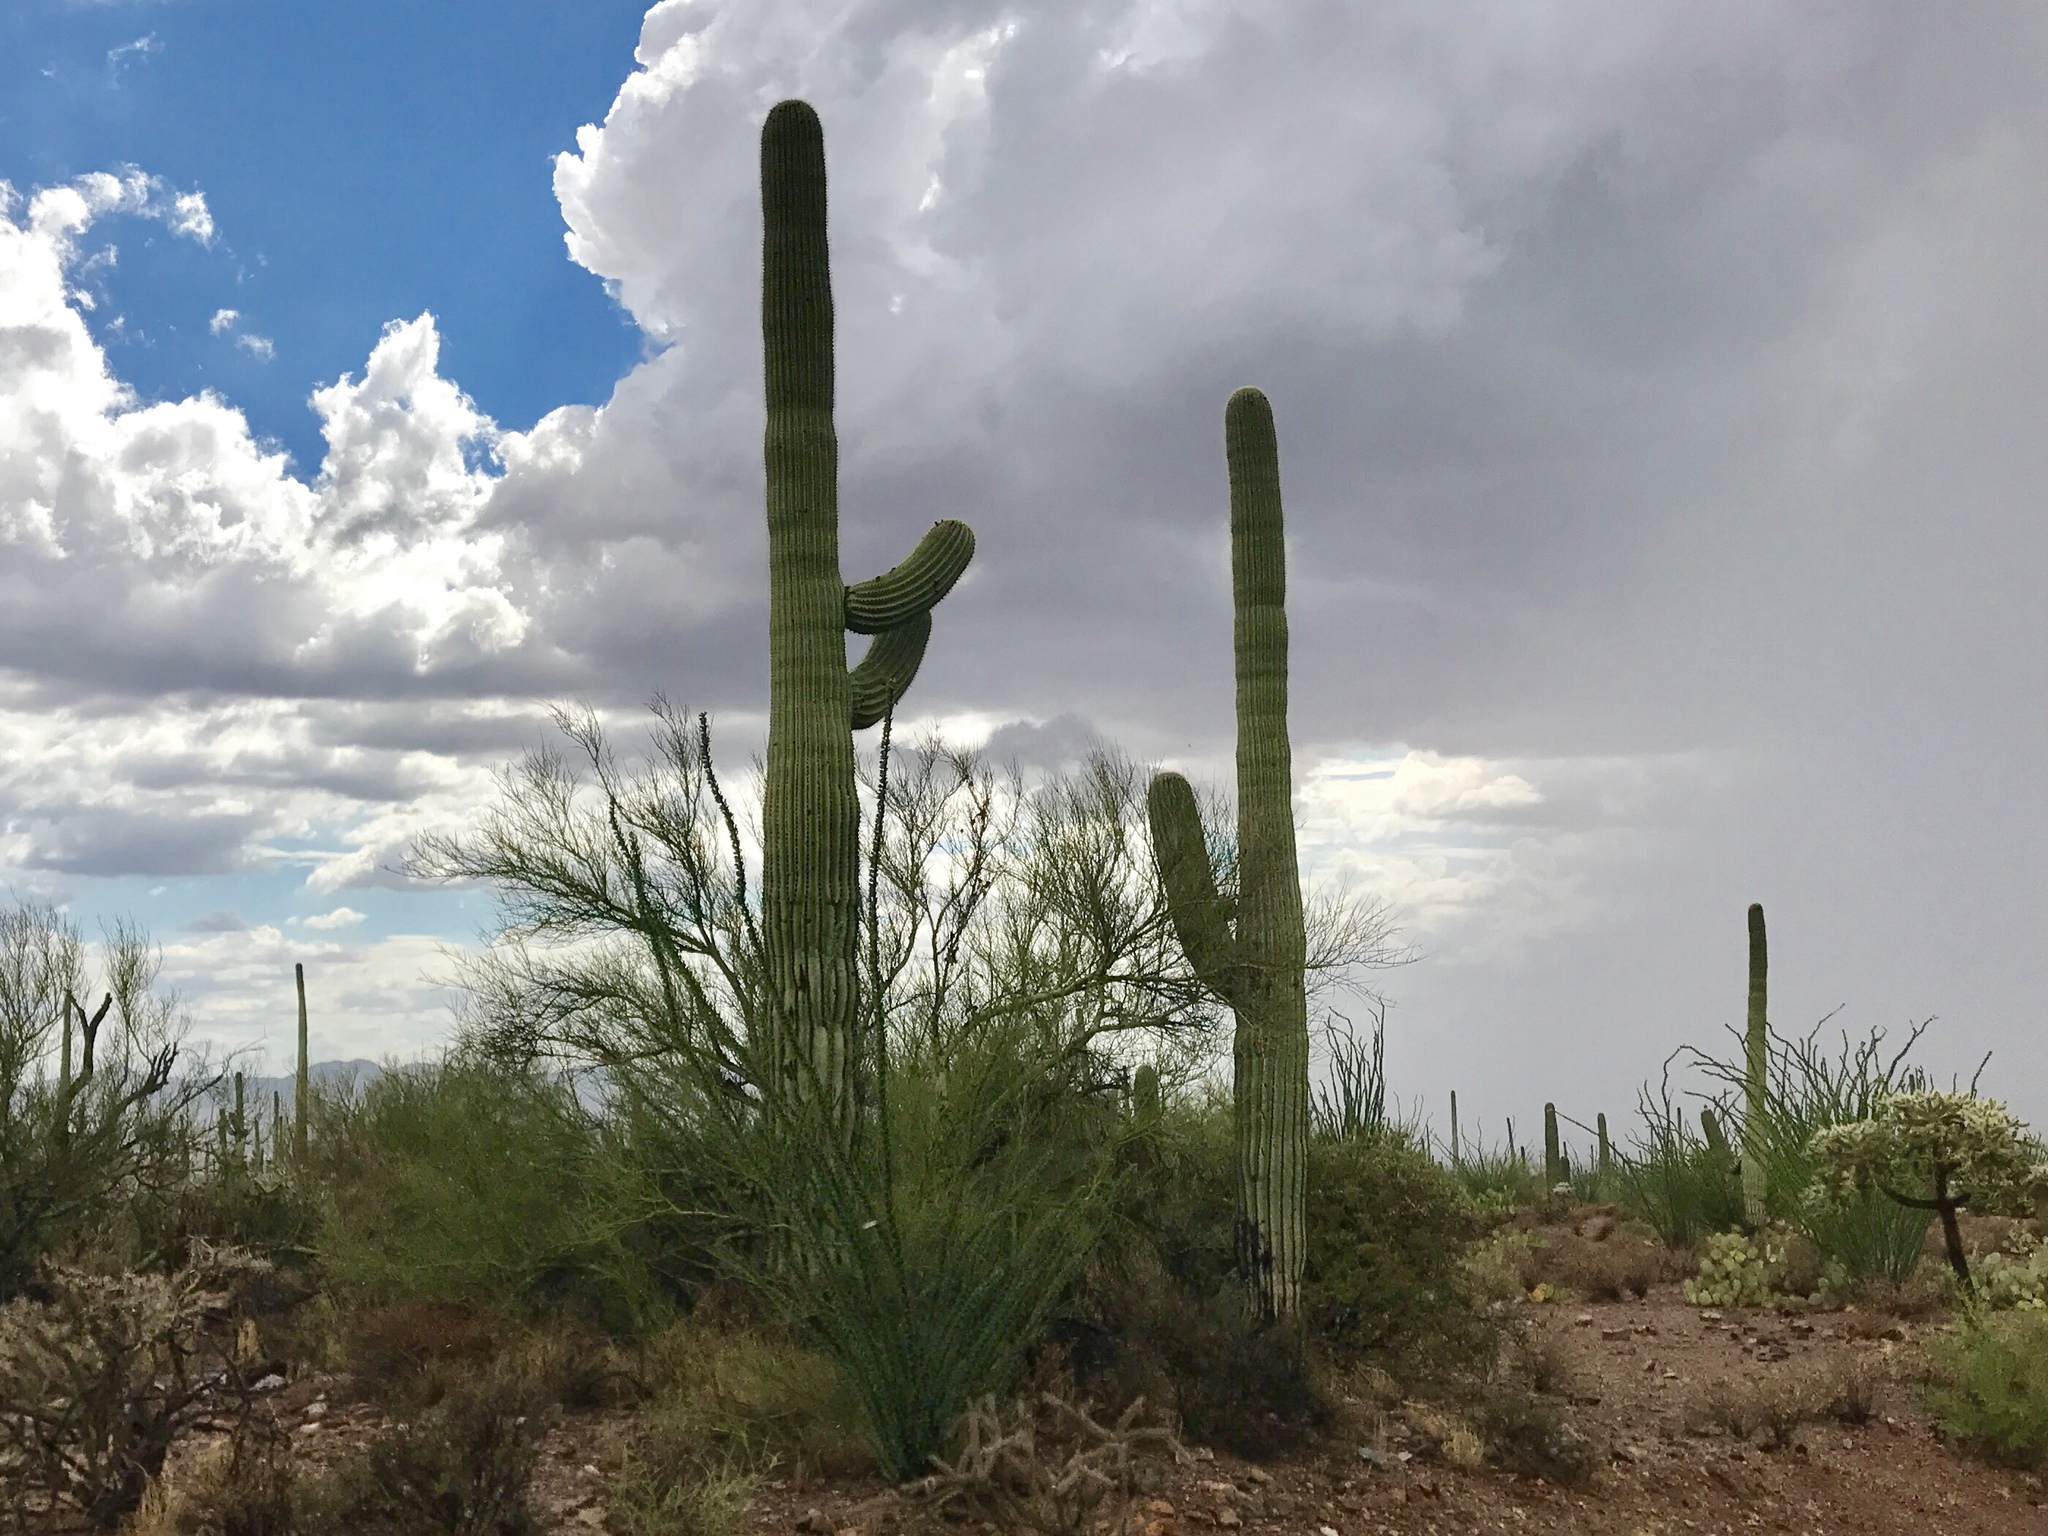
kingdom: Plantae
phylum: Tracheophyta
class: Magnoliopsida
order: Caryophyllales
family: Cactaceae
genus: Carnegiea
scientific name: Carnegiea gigantea
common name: Saguaro
